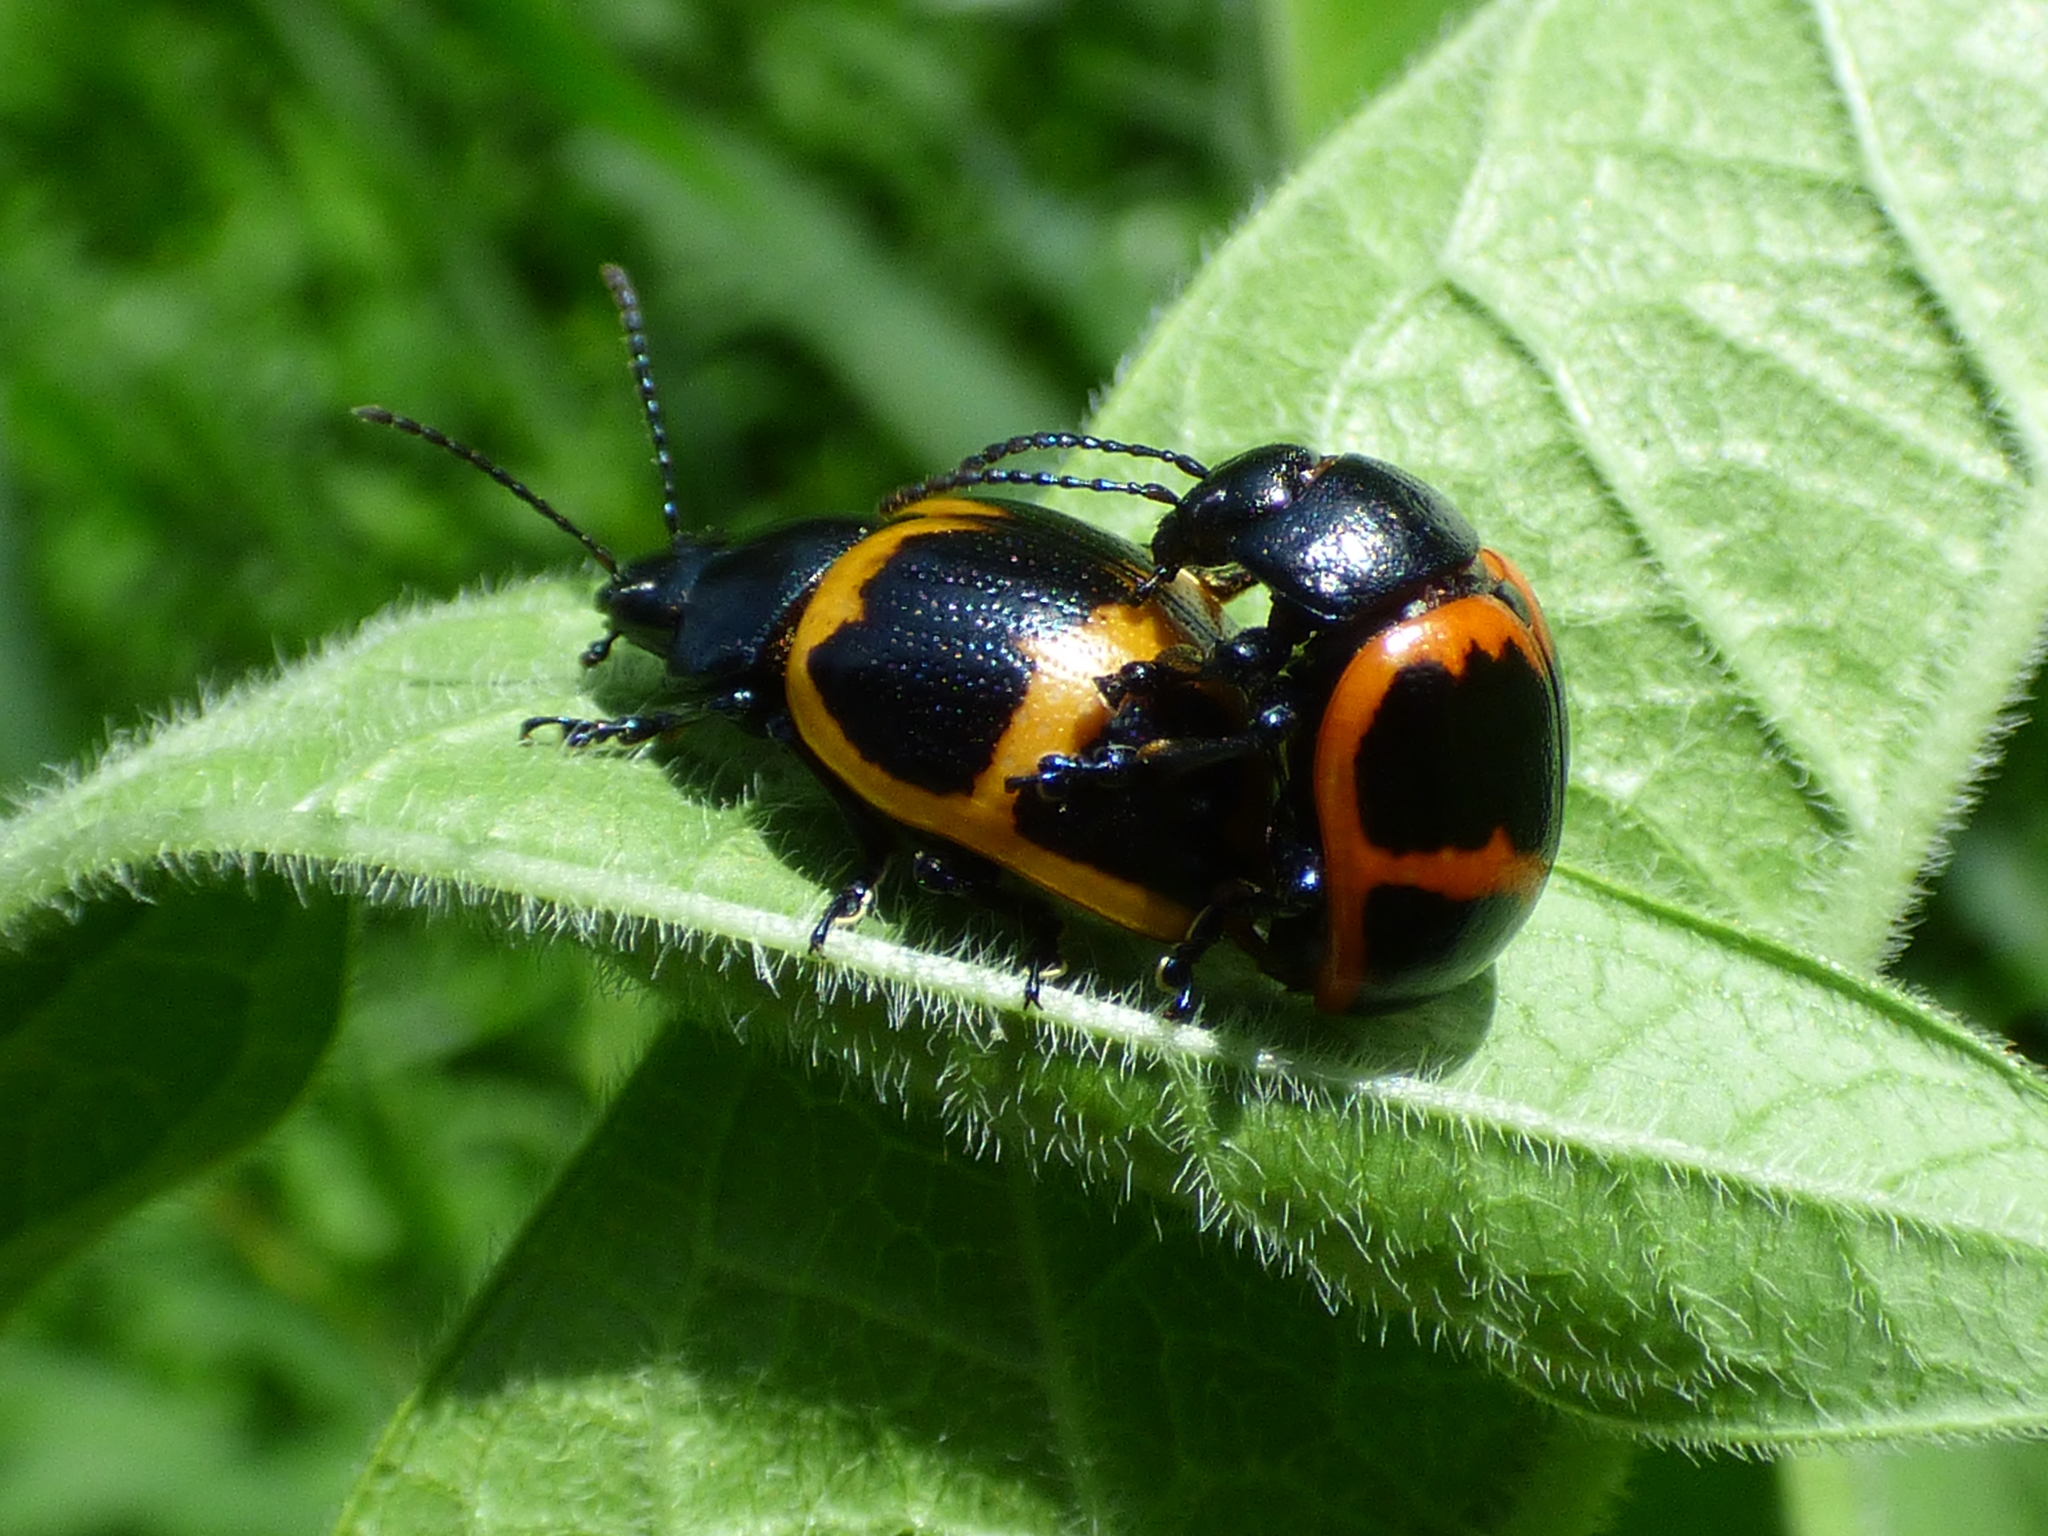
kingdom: Animalia
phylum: Arthropoda
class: Insecta
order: Coleoptera
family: Chrysomelidae
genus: Labidomera
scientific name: Labidomera clivicollis
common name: Swamp milkweed leaf beetle
